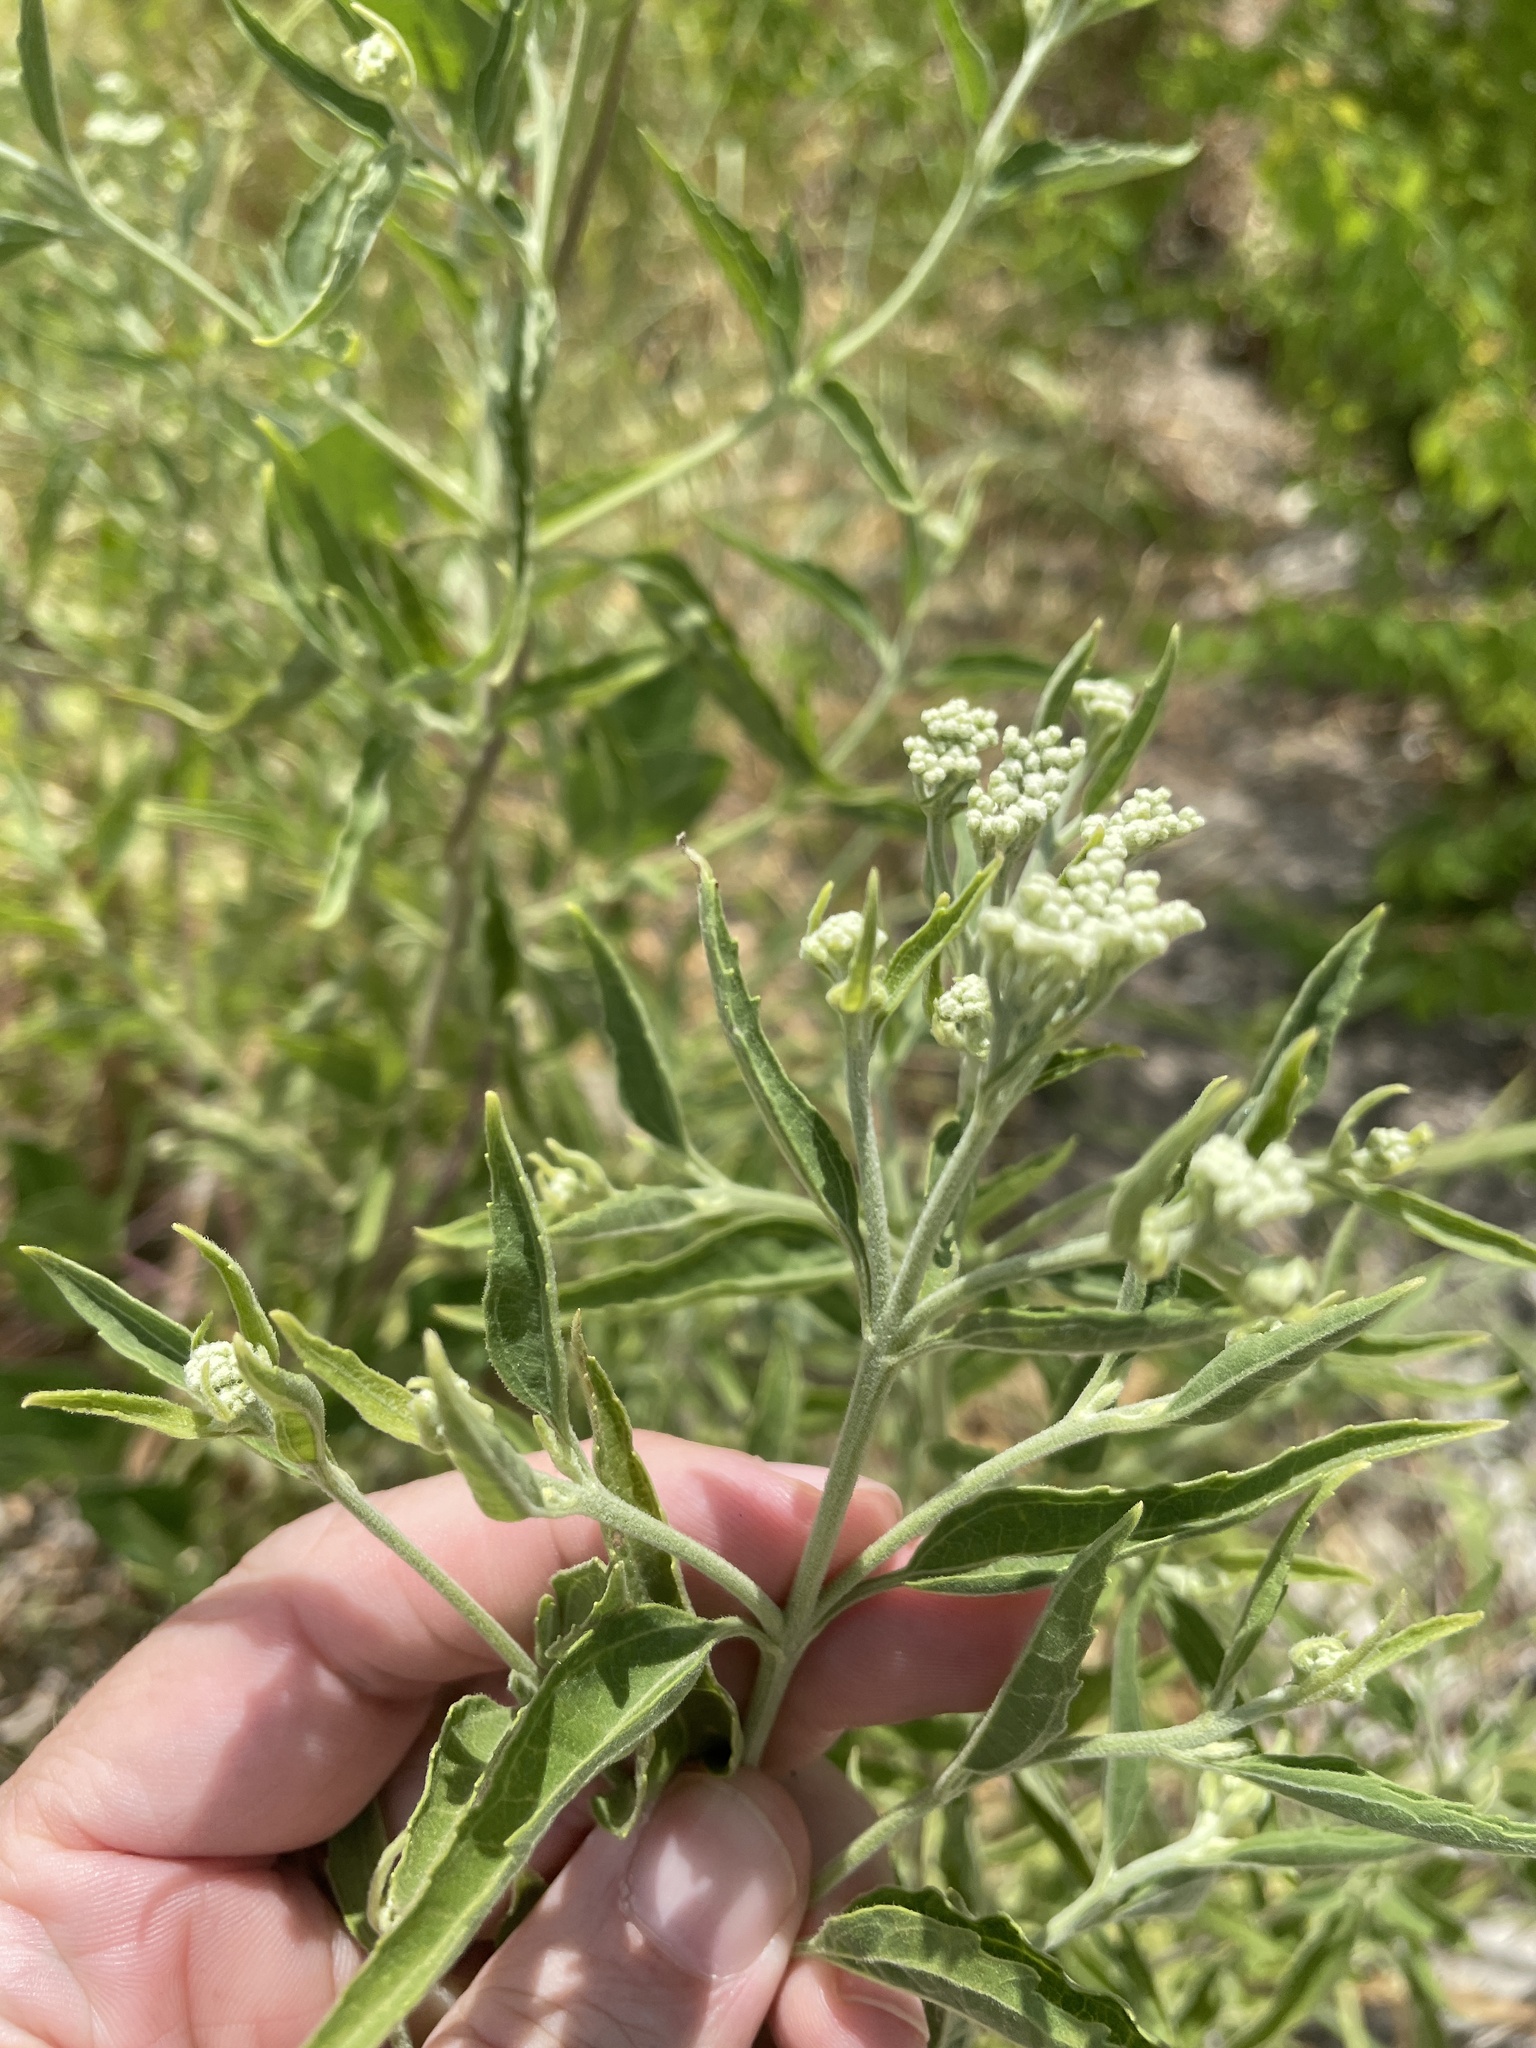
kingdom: Plantae
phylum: Tracheophyta
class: Magnoliopsida
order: Asterales
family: Asteraceae
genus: Eupatorium
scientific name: Eupatorium serotinum
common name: Late boneset
